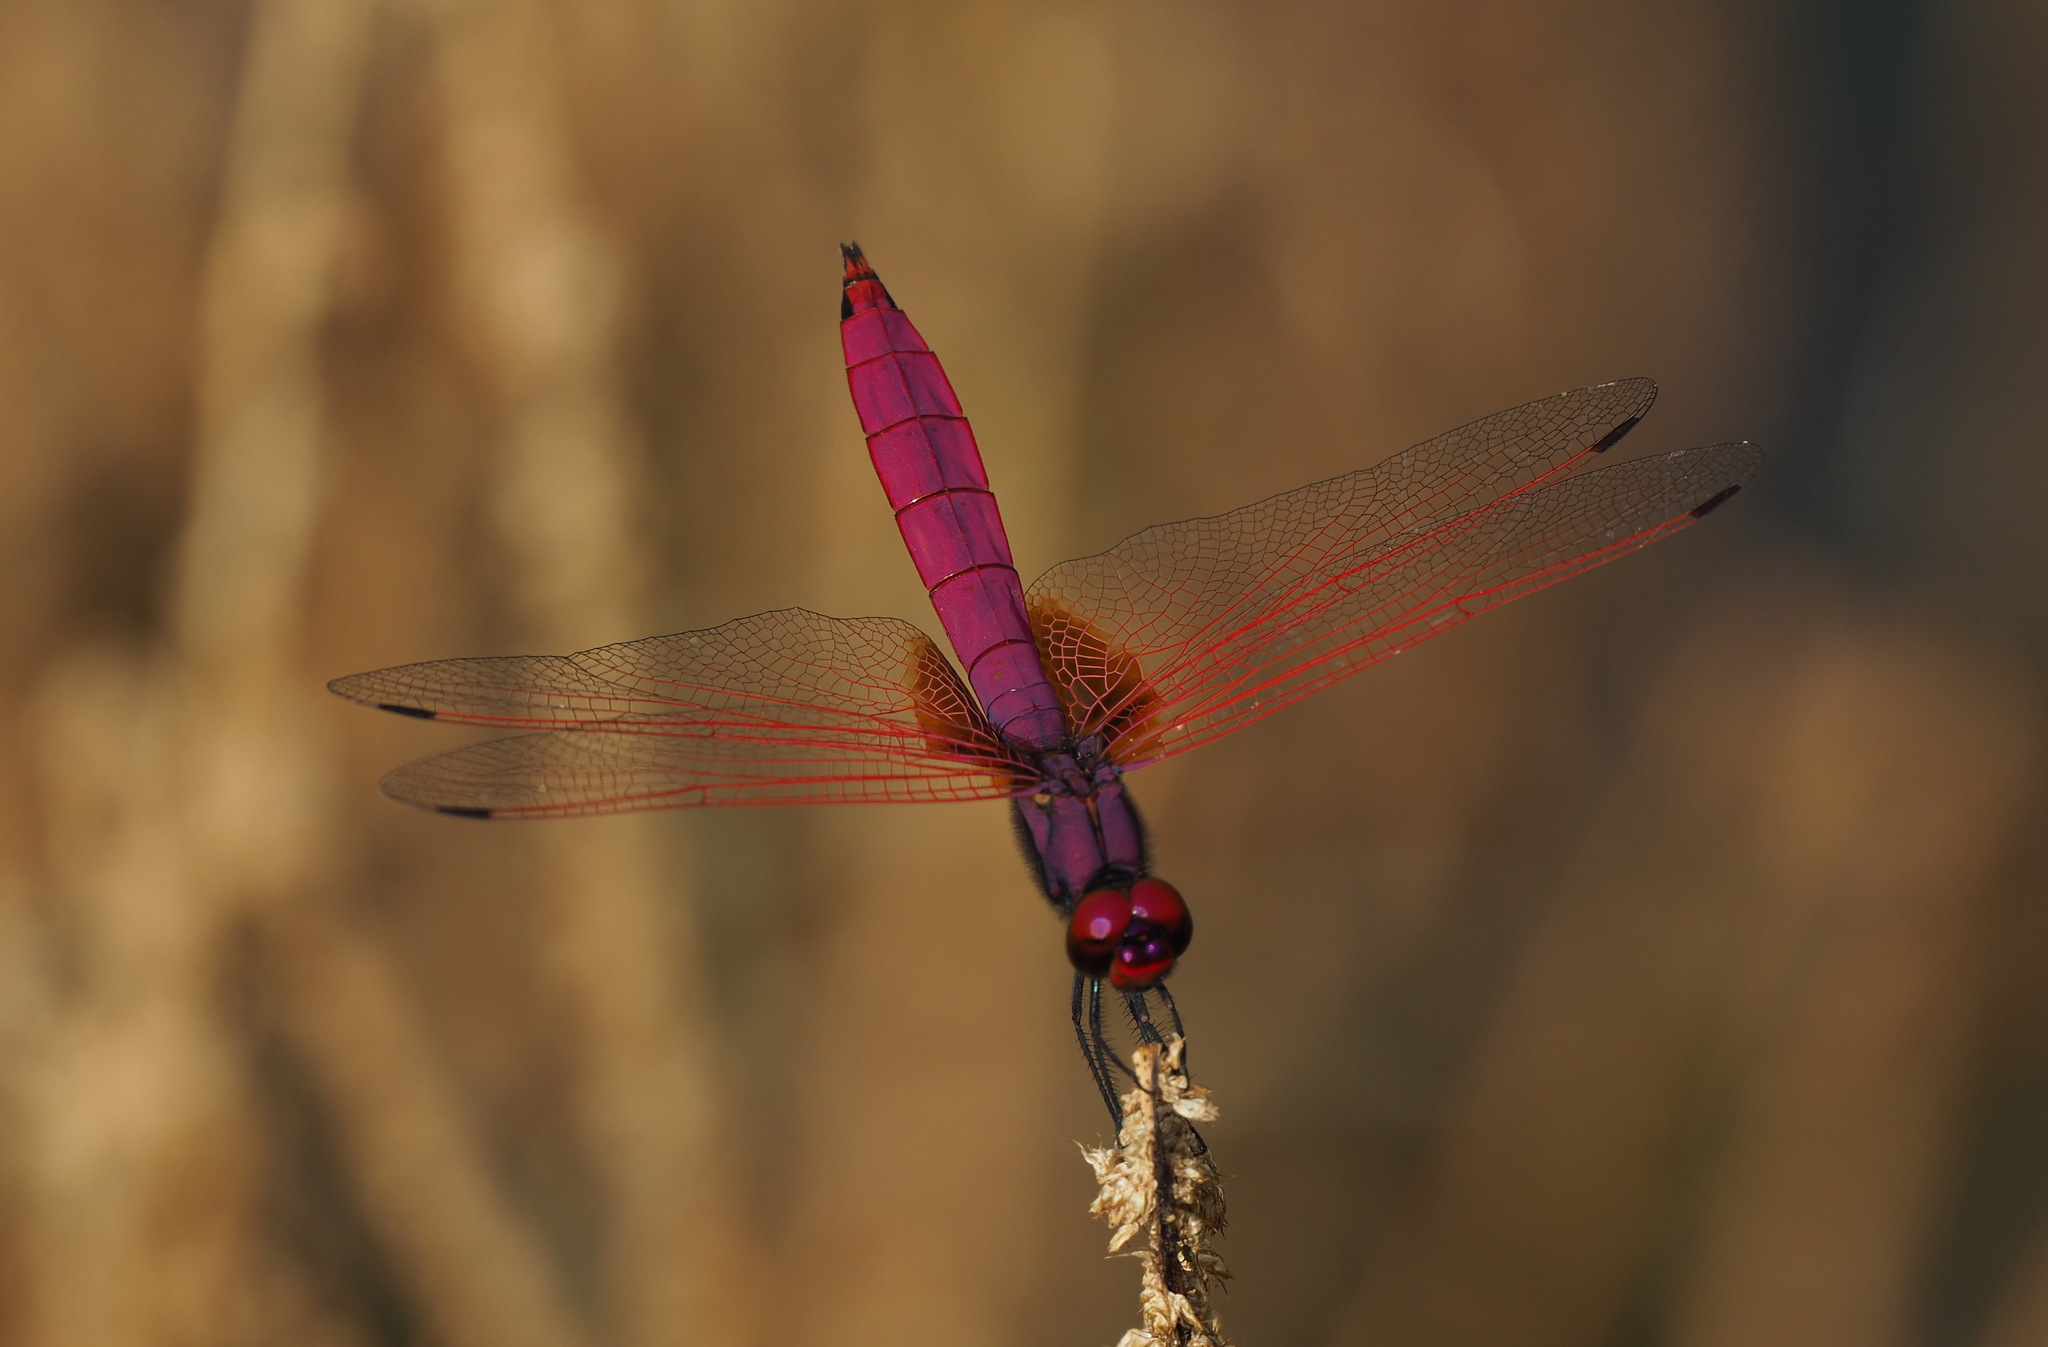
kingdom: Animalia
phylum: Arthropoda
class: Insecta
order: Odonata
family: Libellulidae
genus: Trithemis
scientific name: Trithemis aurora
